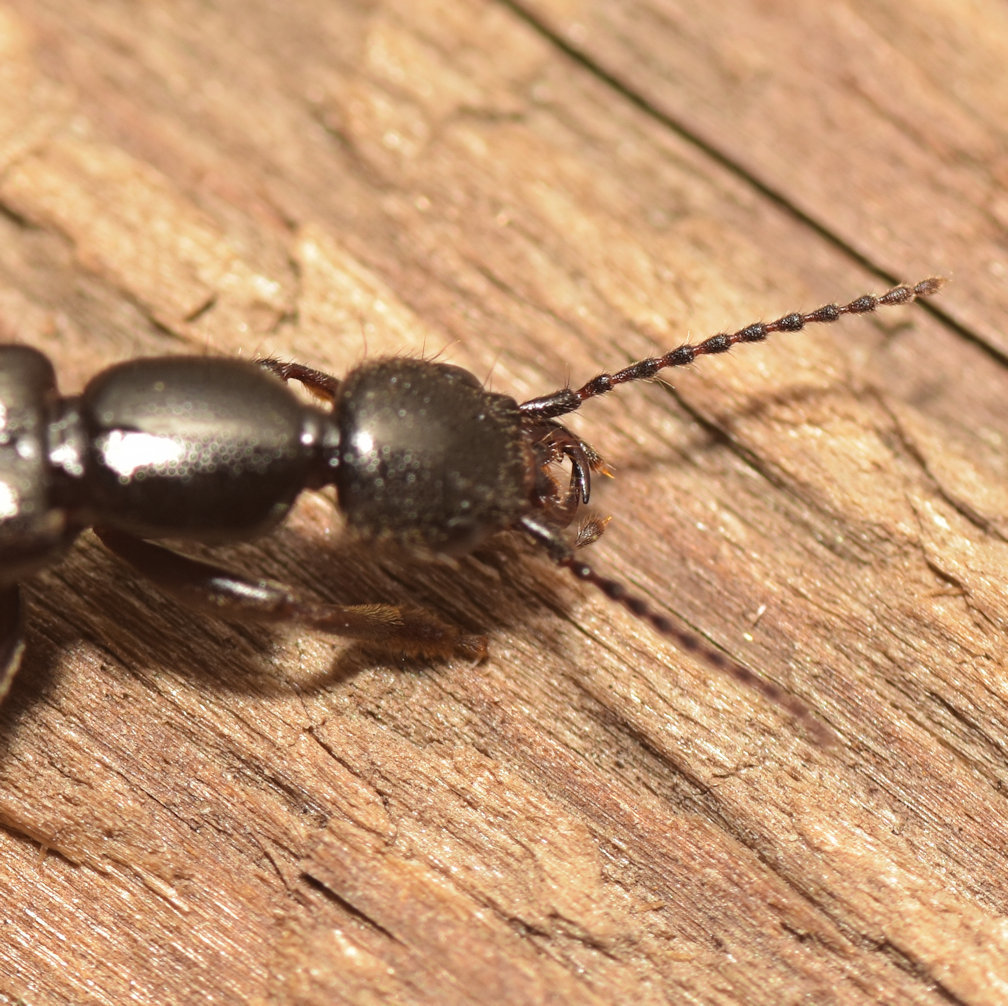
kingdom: Animalia
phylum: Arthropoda
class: Insecta
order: Coleoptera
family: Staphylinidae
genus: Lobrathium
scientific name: Lobrathium grande
